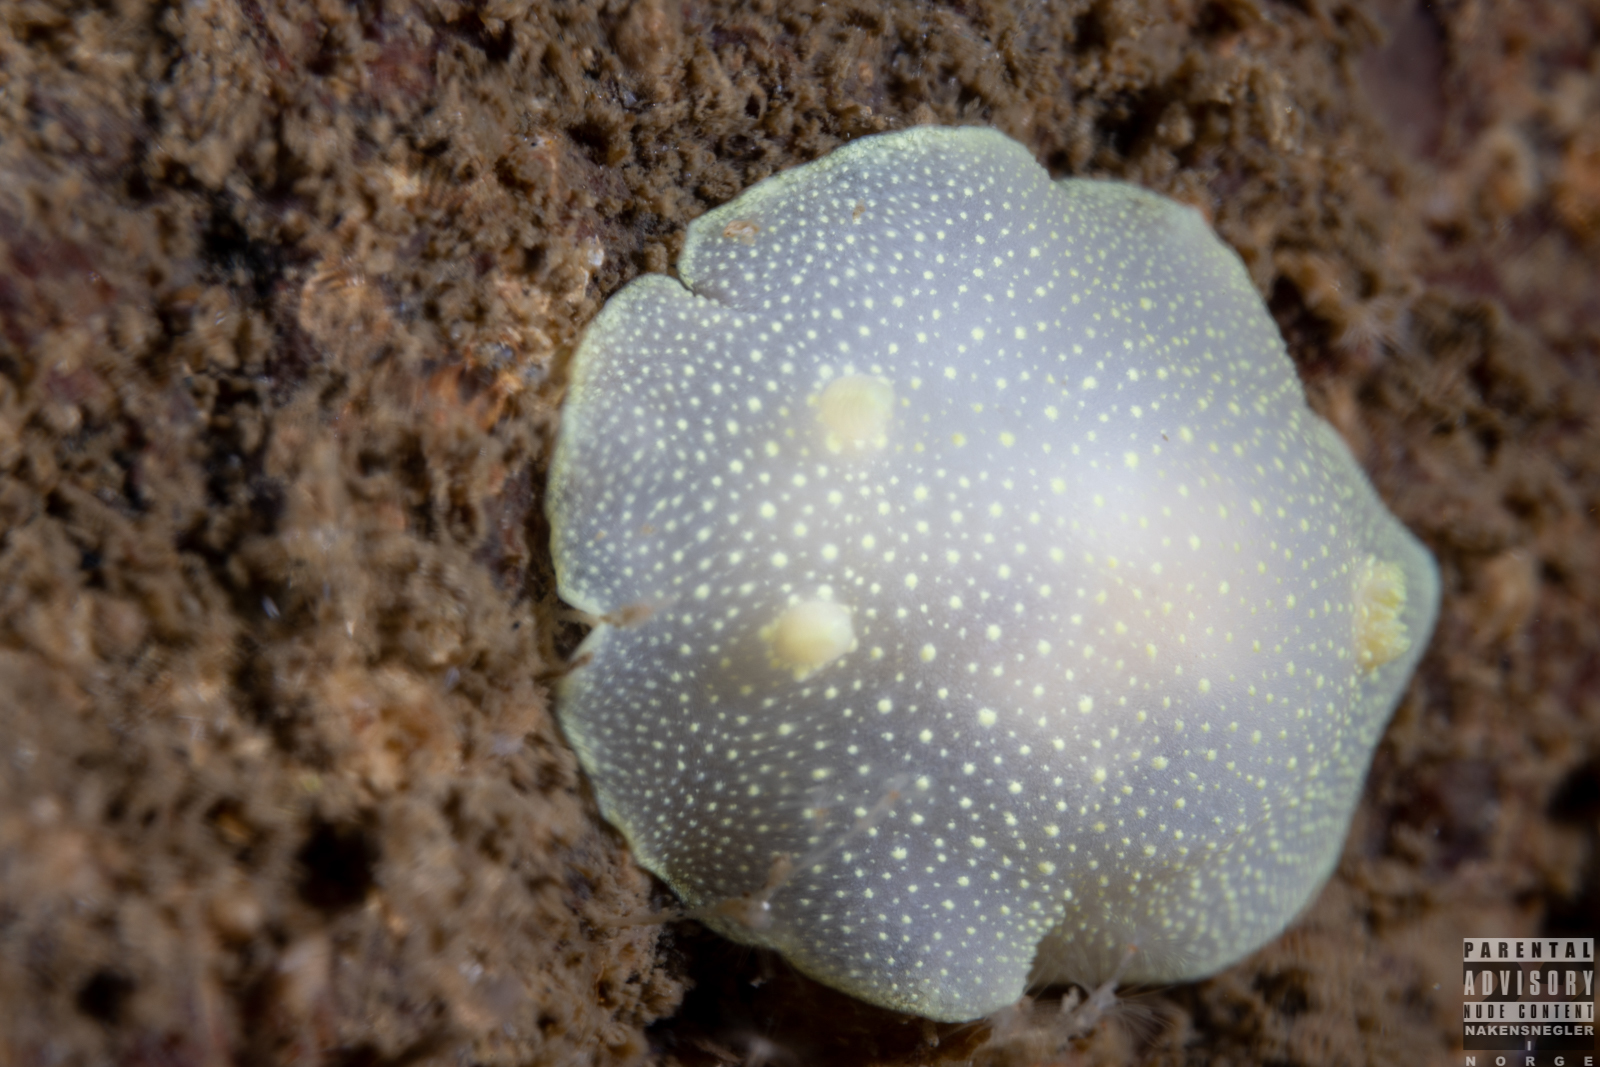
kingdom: Animalia
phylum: Mollusca
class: Gastropoda
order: Nudibranchia
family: Cadlinidae
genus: Cadlina
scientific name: Cadlina laevis
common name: White atlantic cadlina
